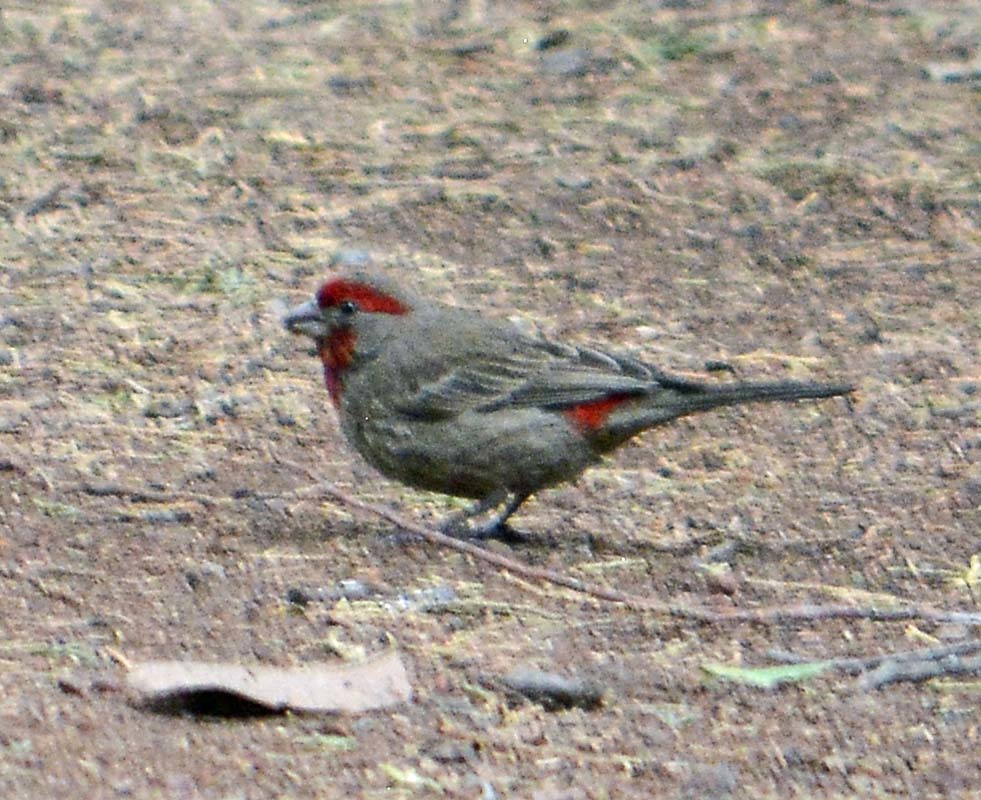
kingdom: Animalia
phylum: Chordata
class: Aves
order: Passeriformes
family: Fringillidae
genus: Haemorhous
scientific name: Haemorhous mexicanus
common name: House finch
